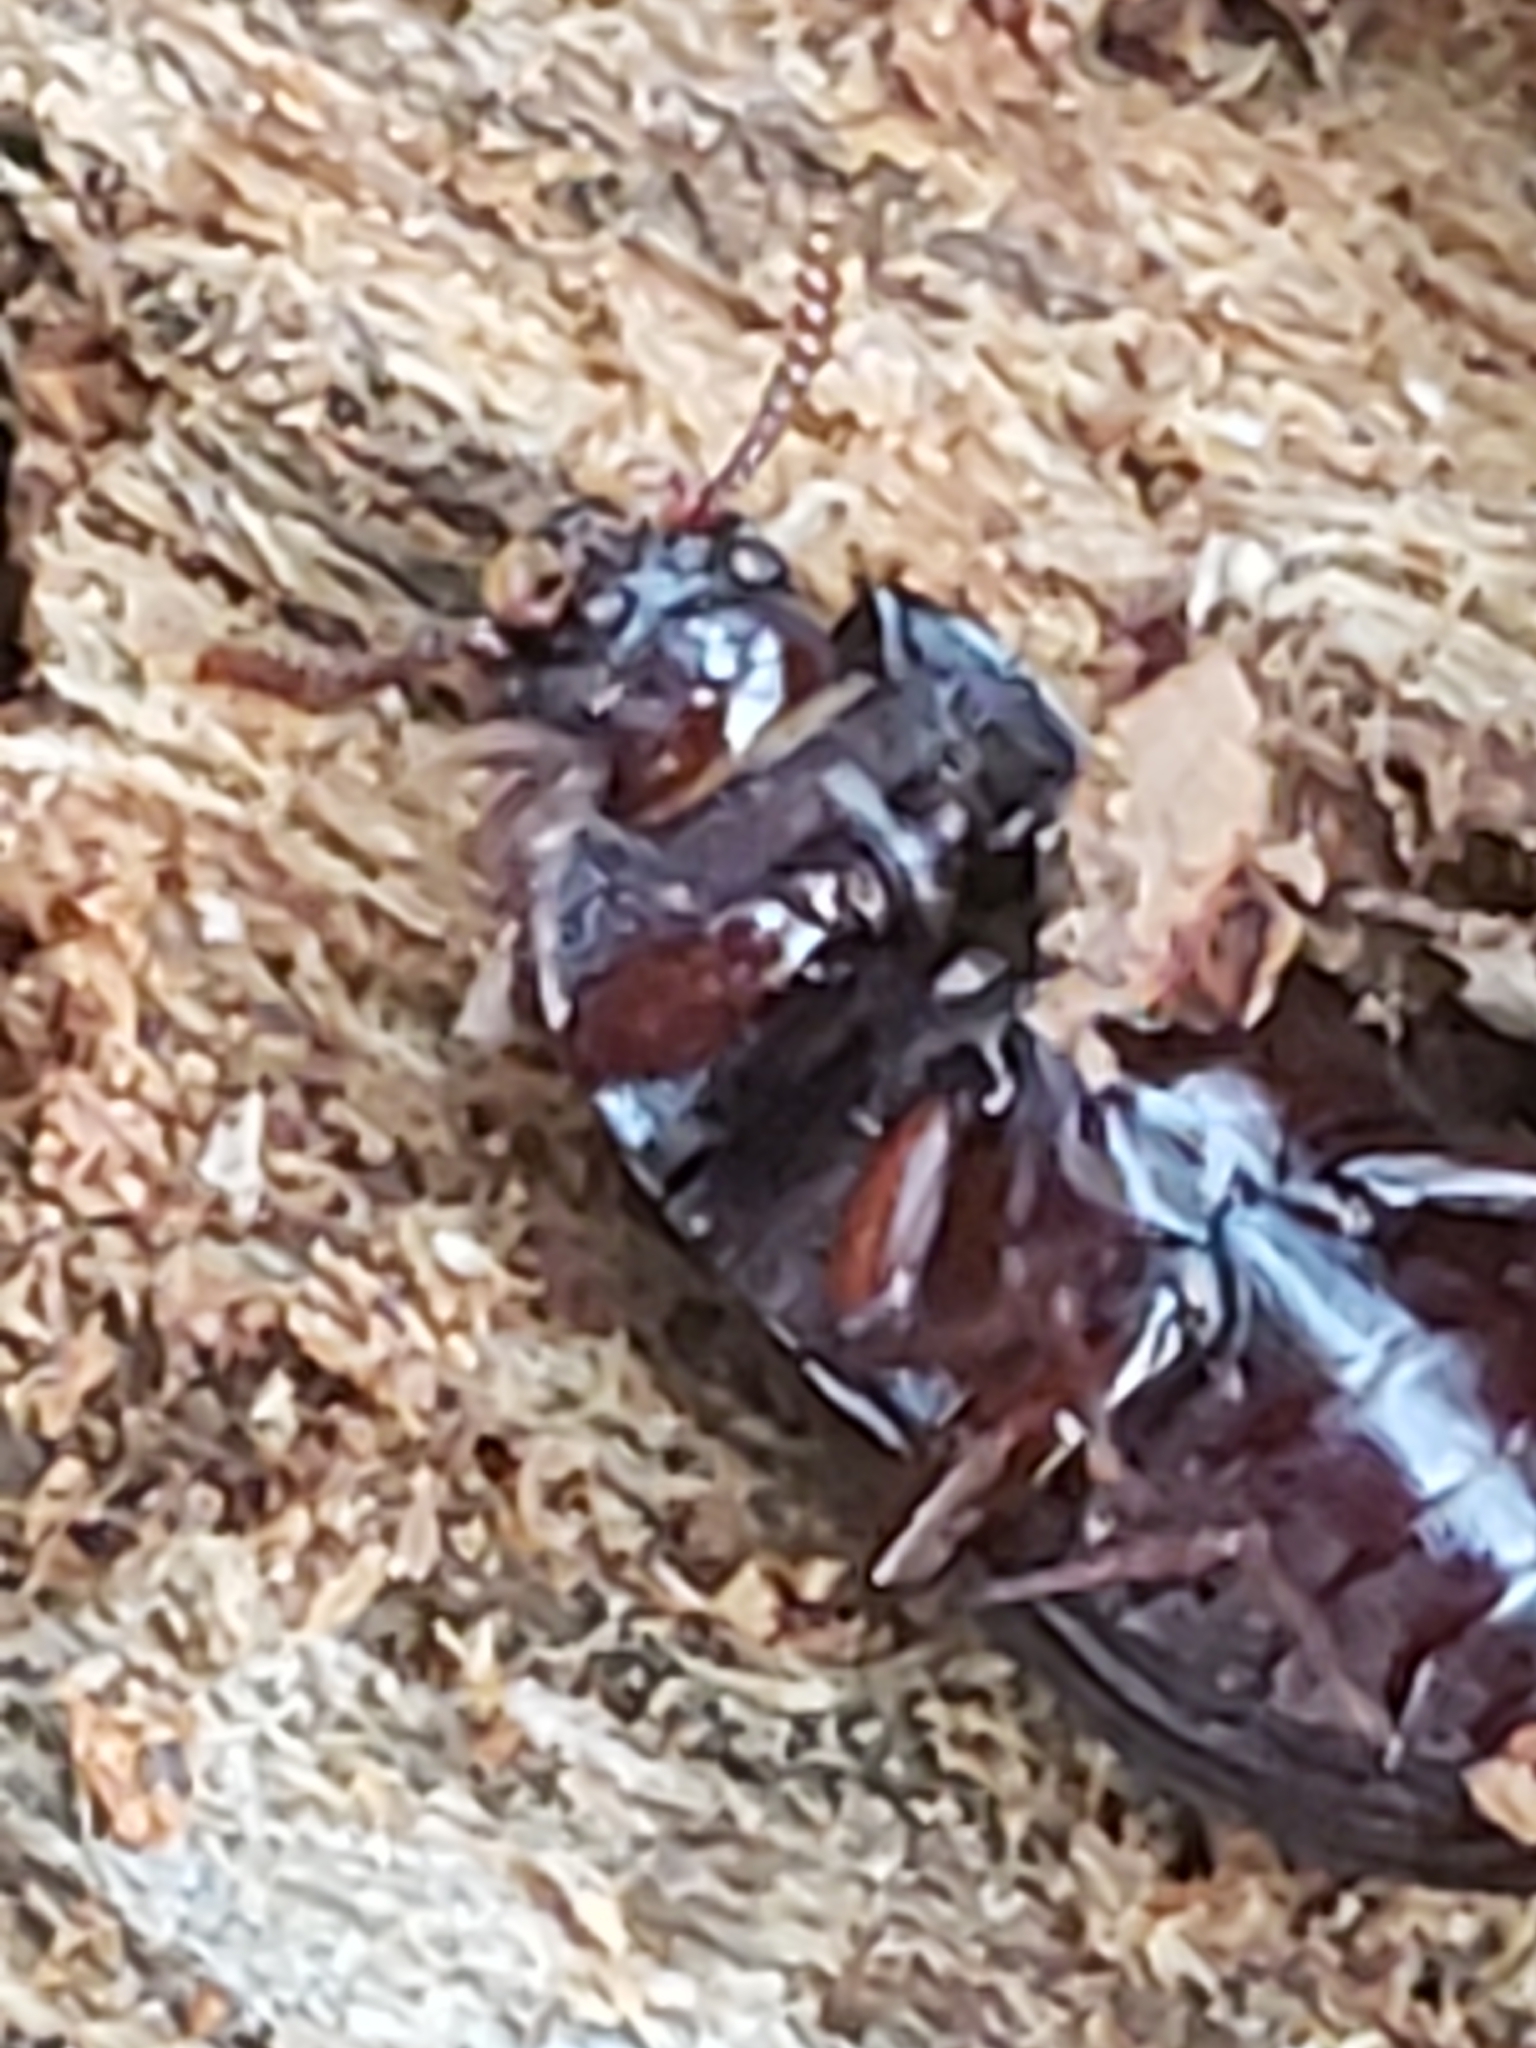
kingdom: Animalia
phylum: Arthropoda
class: Insecta
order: Coleoptera
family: Tenebrionidae
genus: Uloma
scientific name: Uloma imberbis
